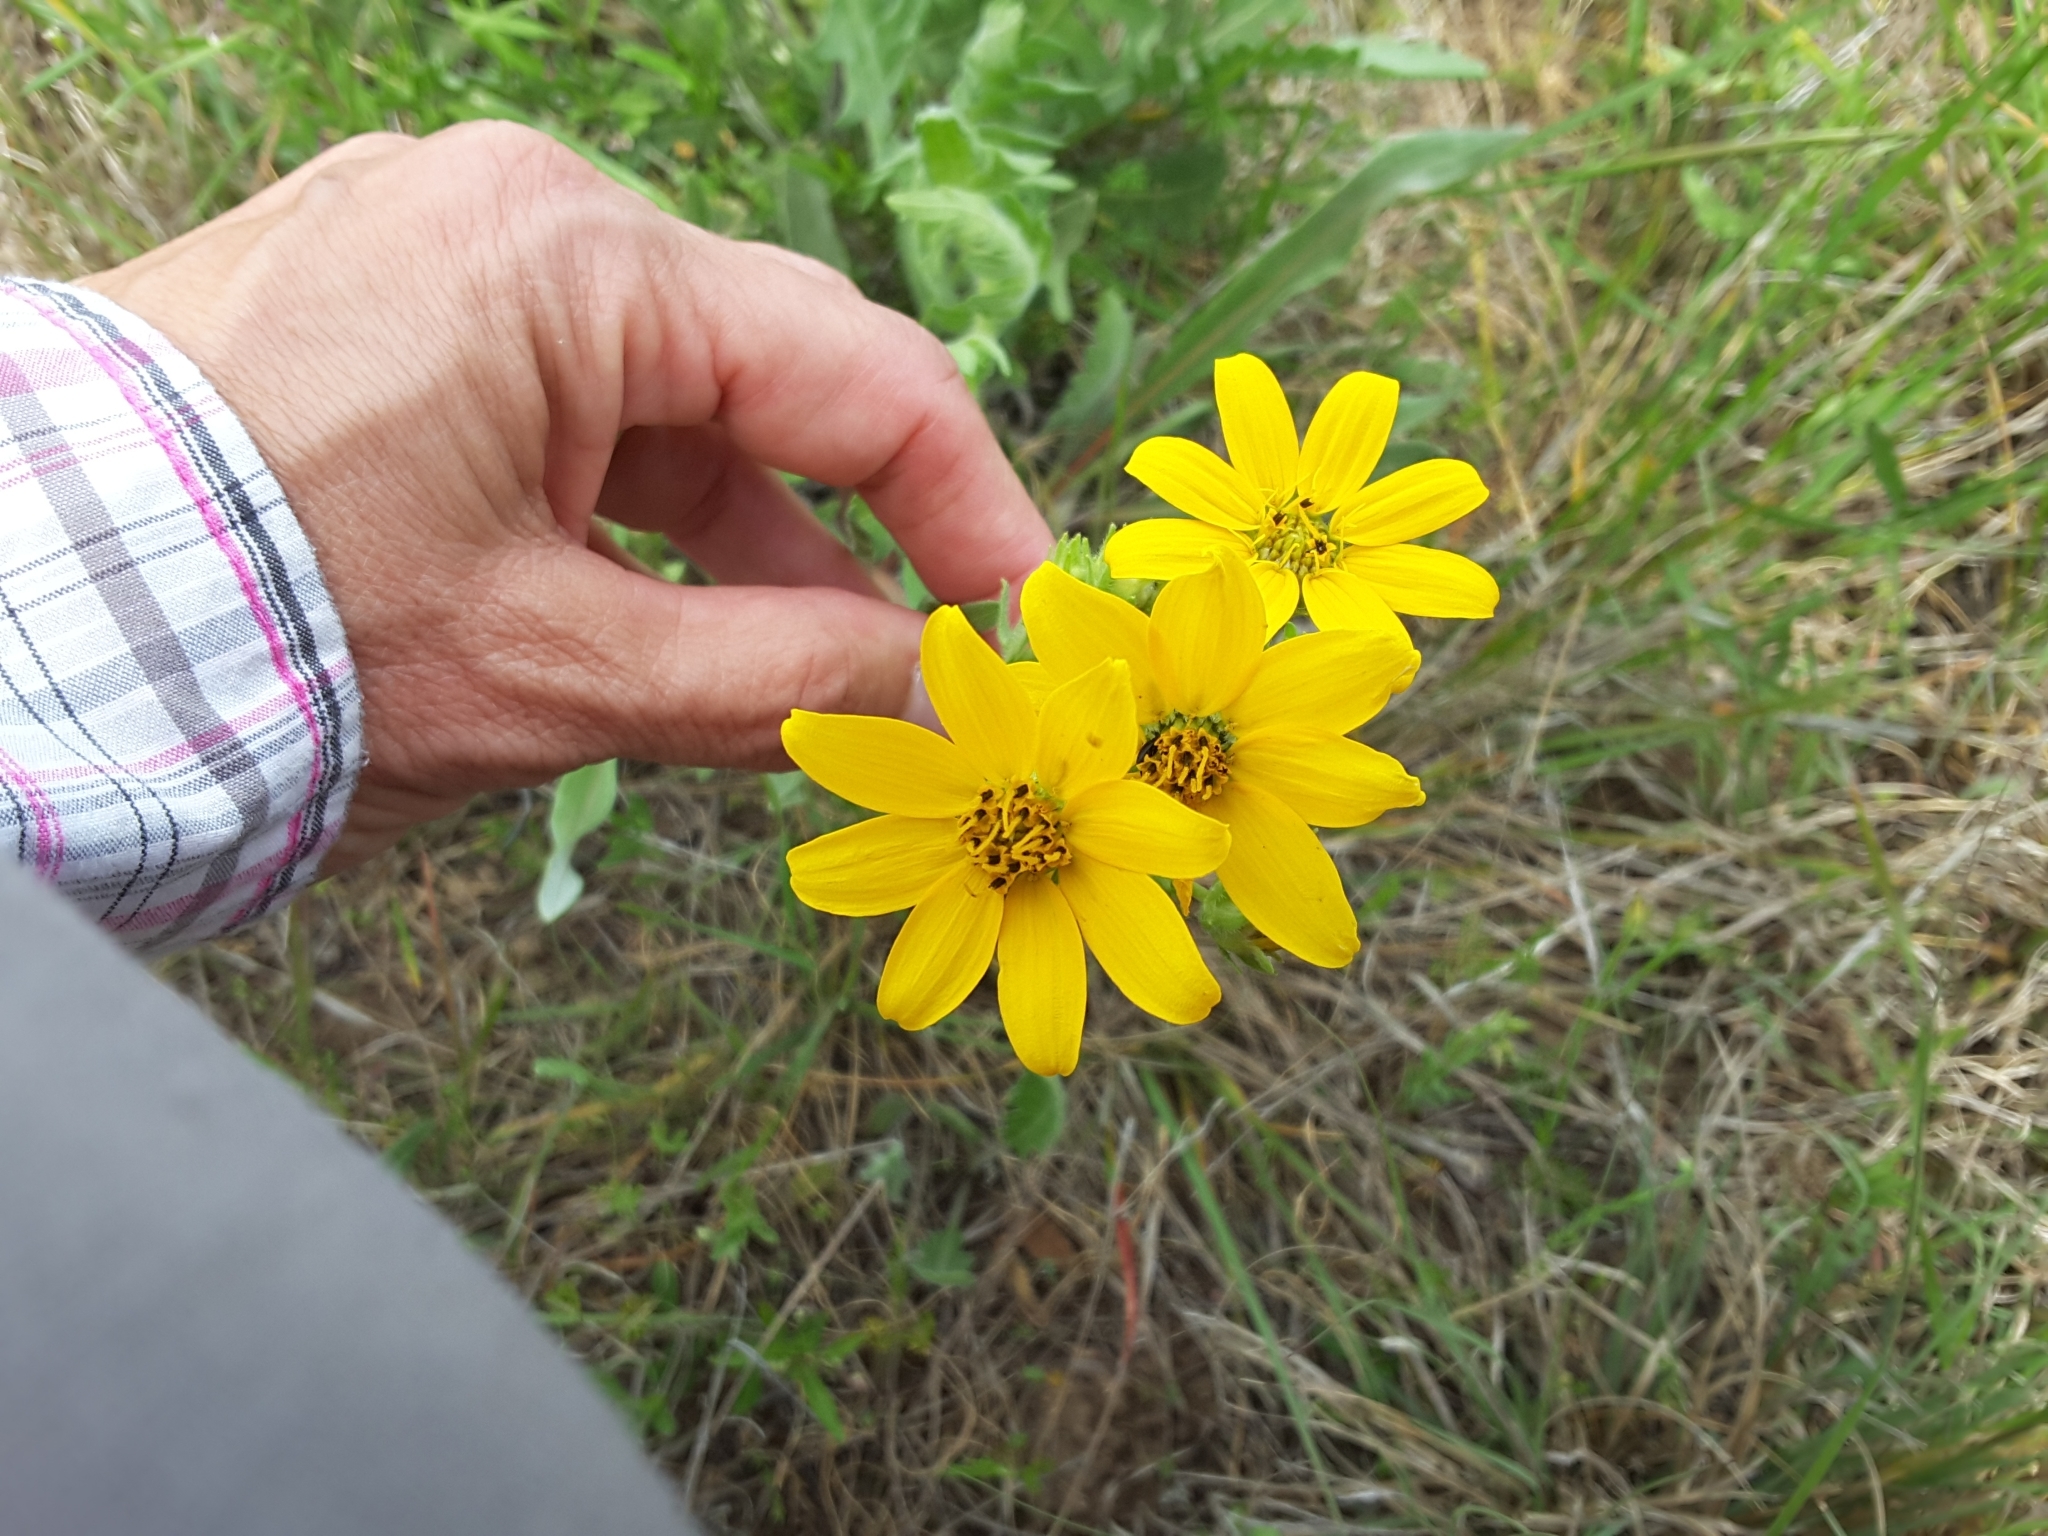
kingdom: Plantae
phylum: Tracheophyta
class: Magnoliopsida
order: Asterales
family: Asteraceae
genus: Engelmannia
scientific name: Engelmannia peristenia
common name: Engelmann's daisy
